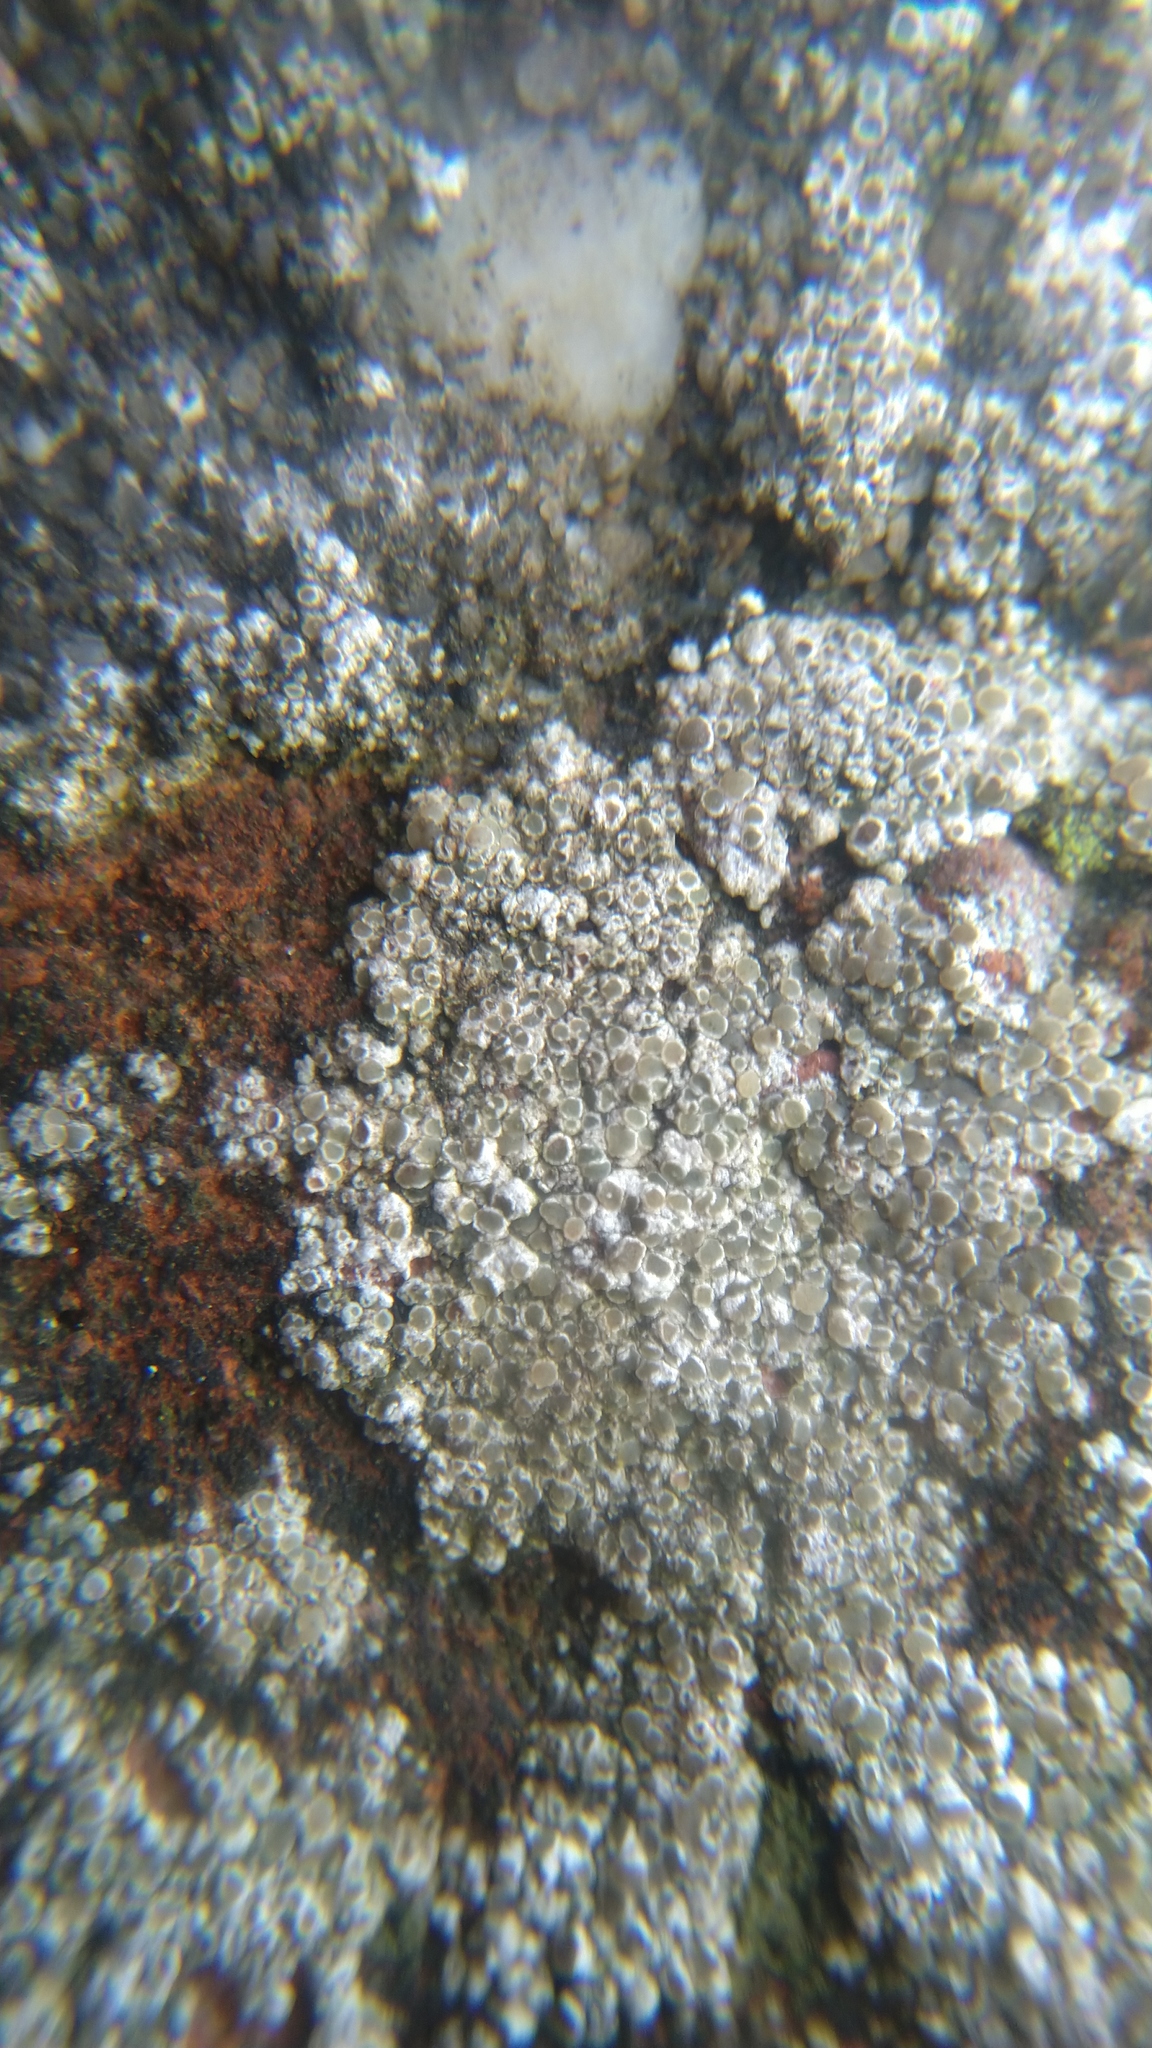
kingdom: Fungi
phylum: Ascomycota
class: Lecanoromycetes
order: Lecanorales
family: Lecanoraceae
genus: Polyozosia
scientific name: Polyozosia albescens
